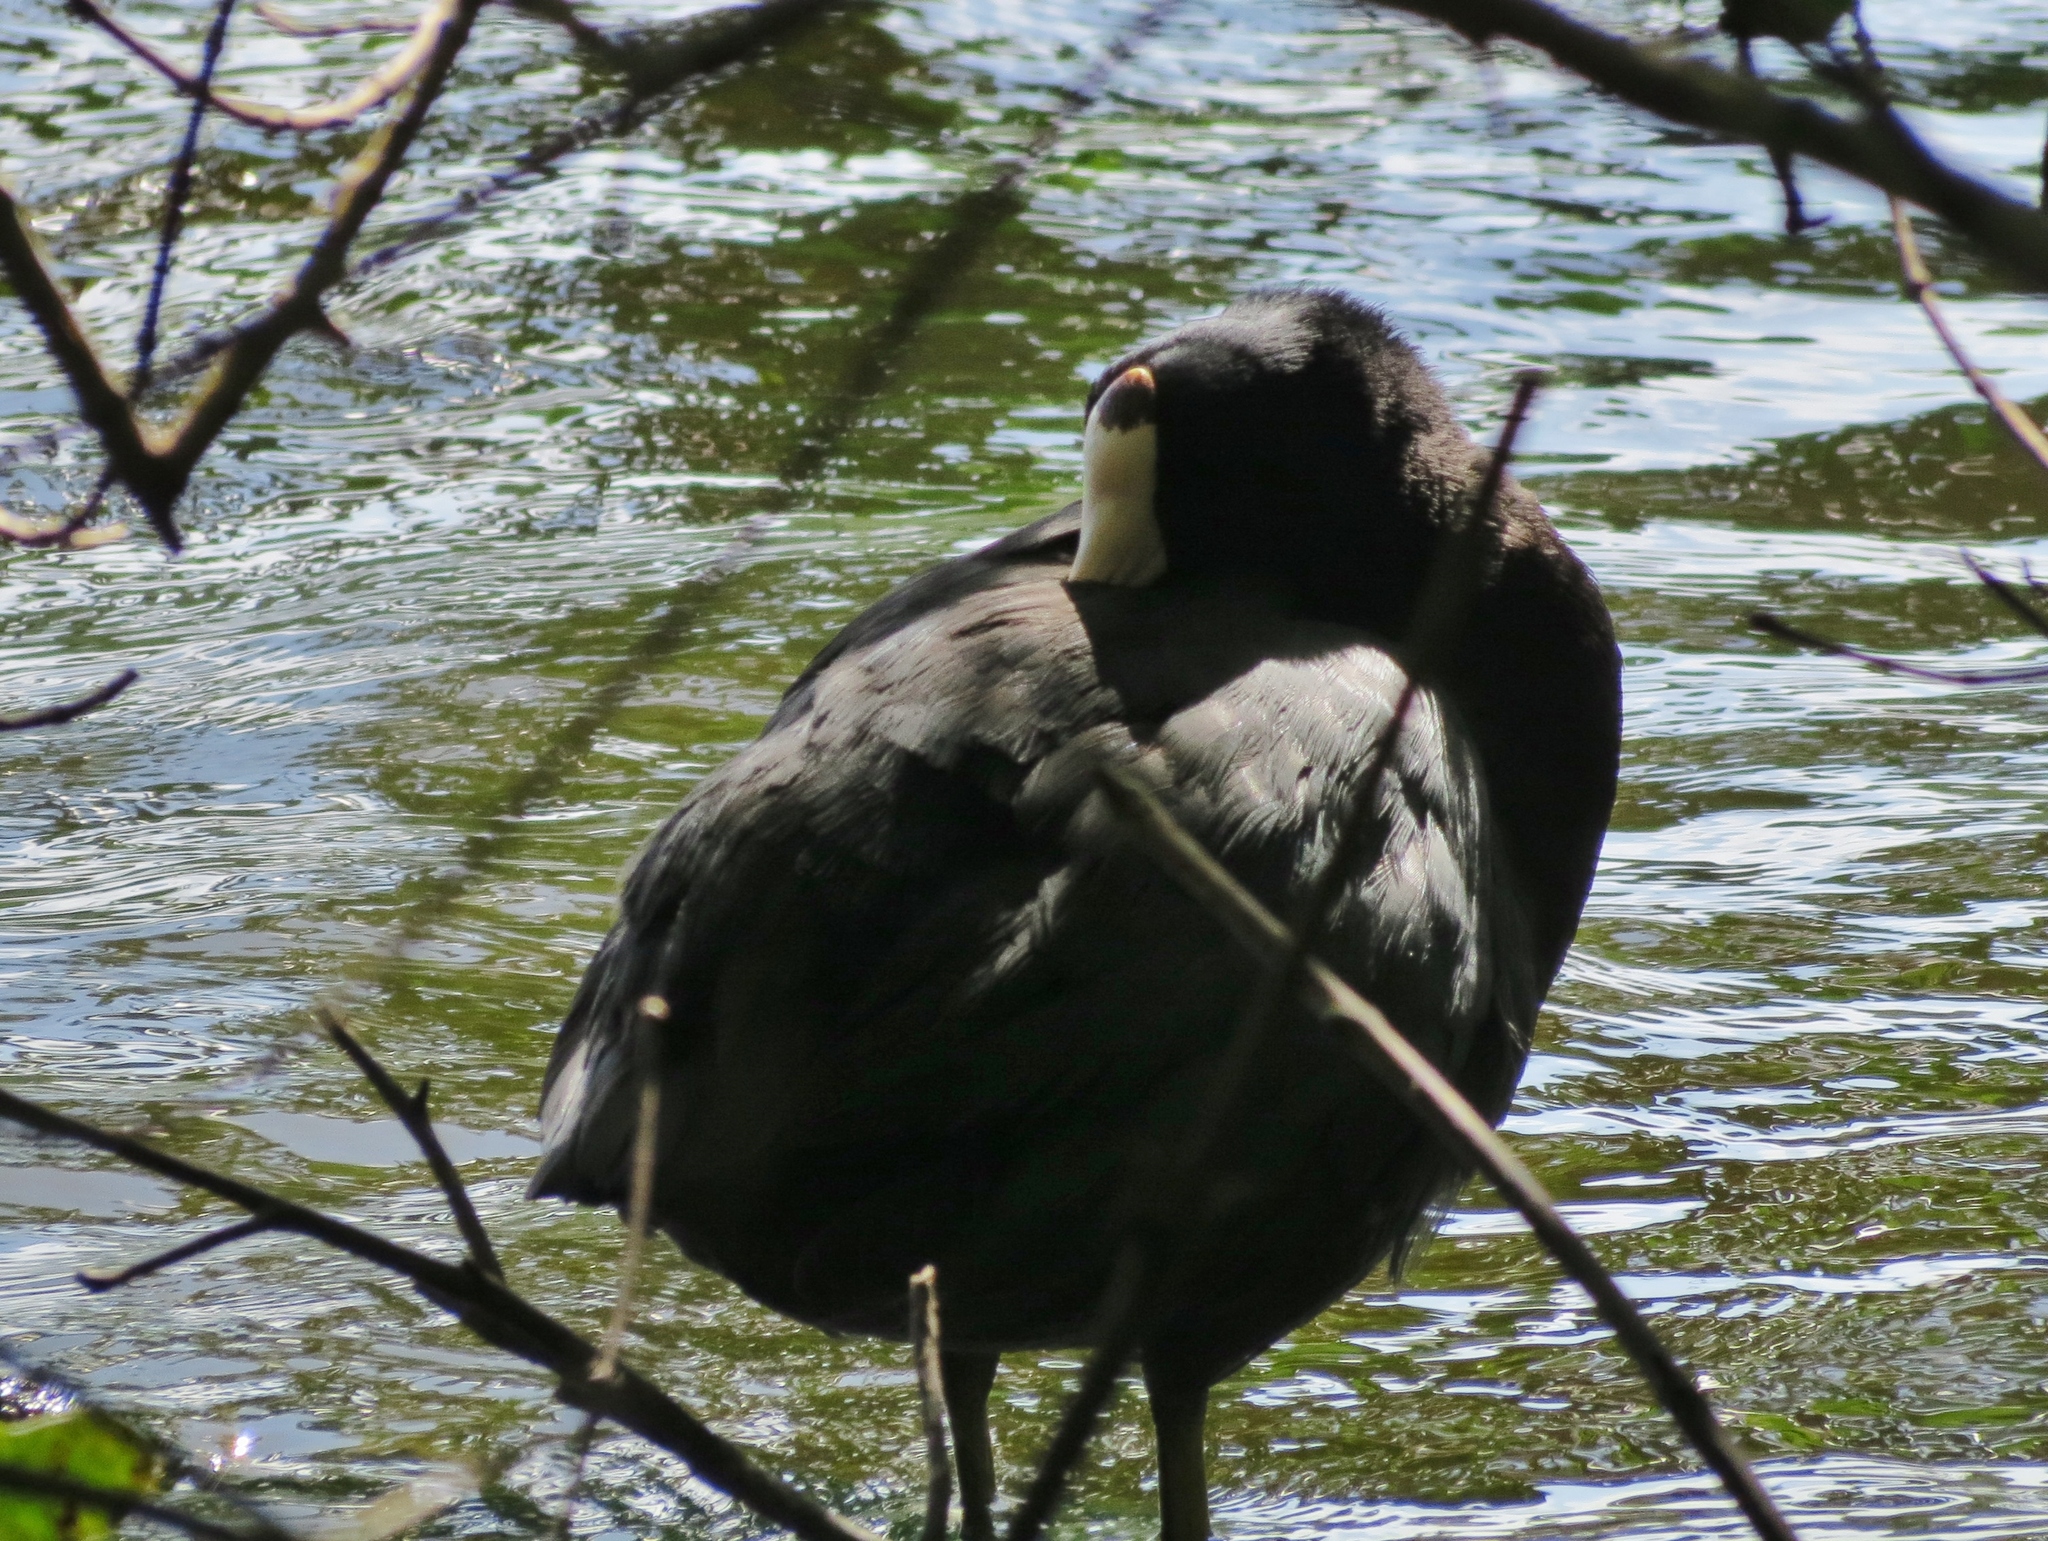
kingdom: Animalia
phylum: Chordata
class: Aves
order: Gruiformes
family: Rallidae
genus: Fulica
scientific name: Fulica americana
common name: American coot
